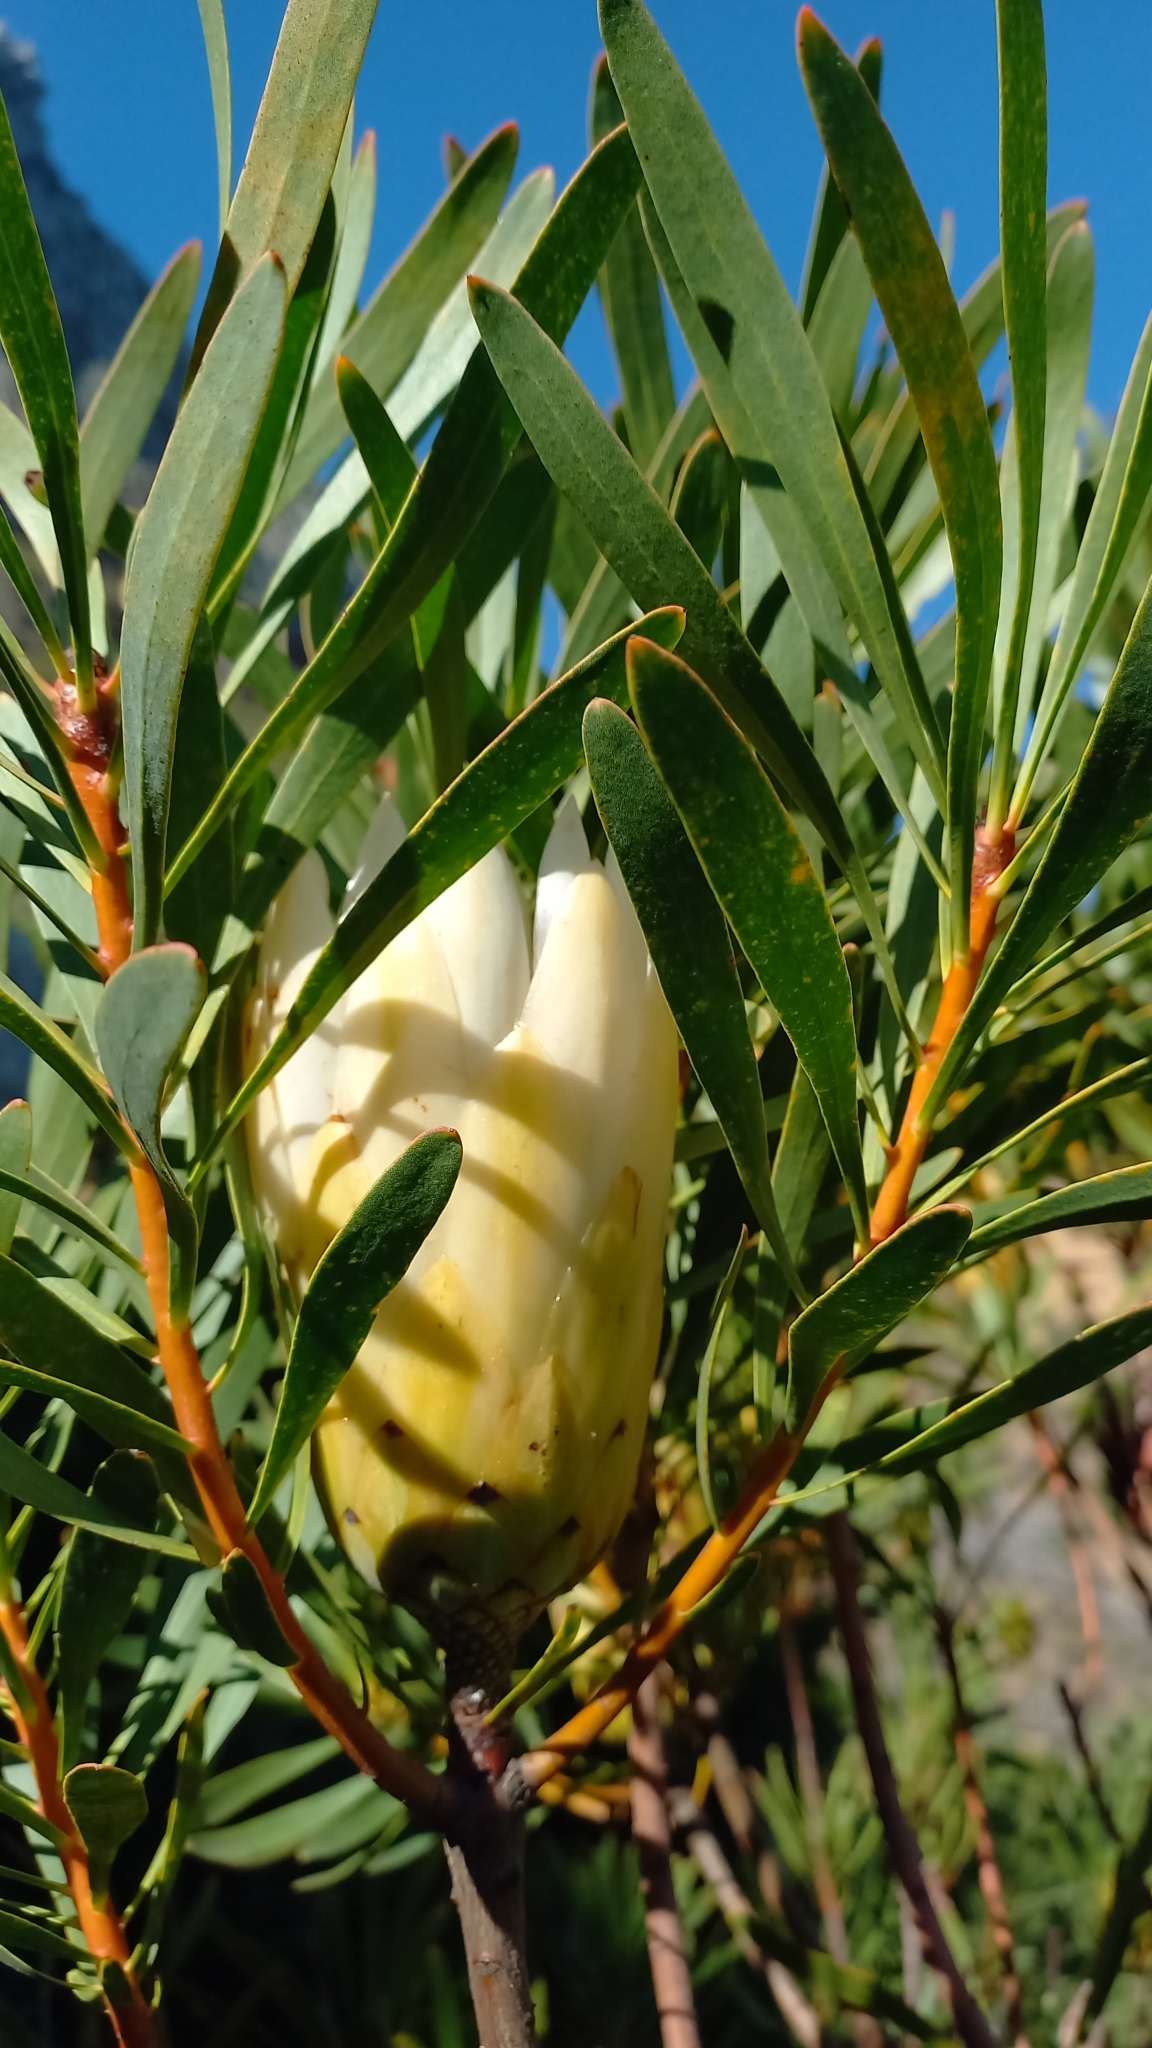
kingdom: Plantae
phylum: Tracheophyta
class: Magnoliopsida
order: Proteales
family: Proteaceae
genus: Protea
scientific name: Protea repens
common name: Sugarbush
